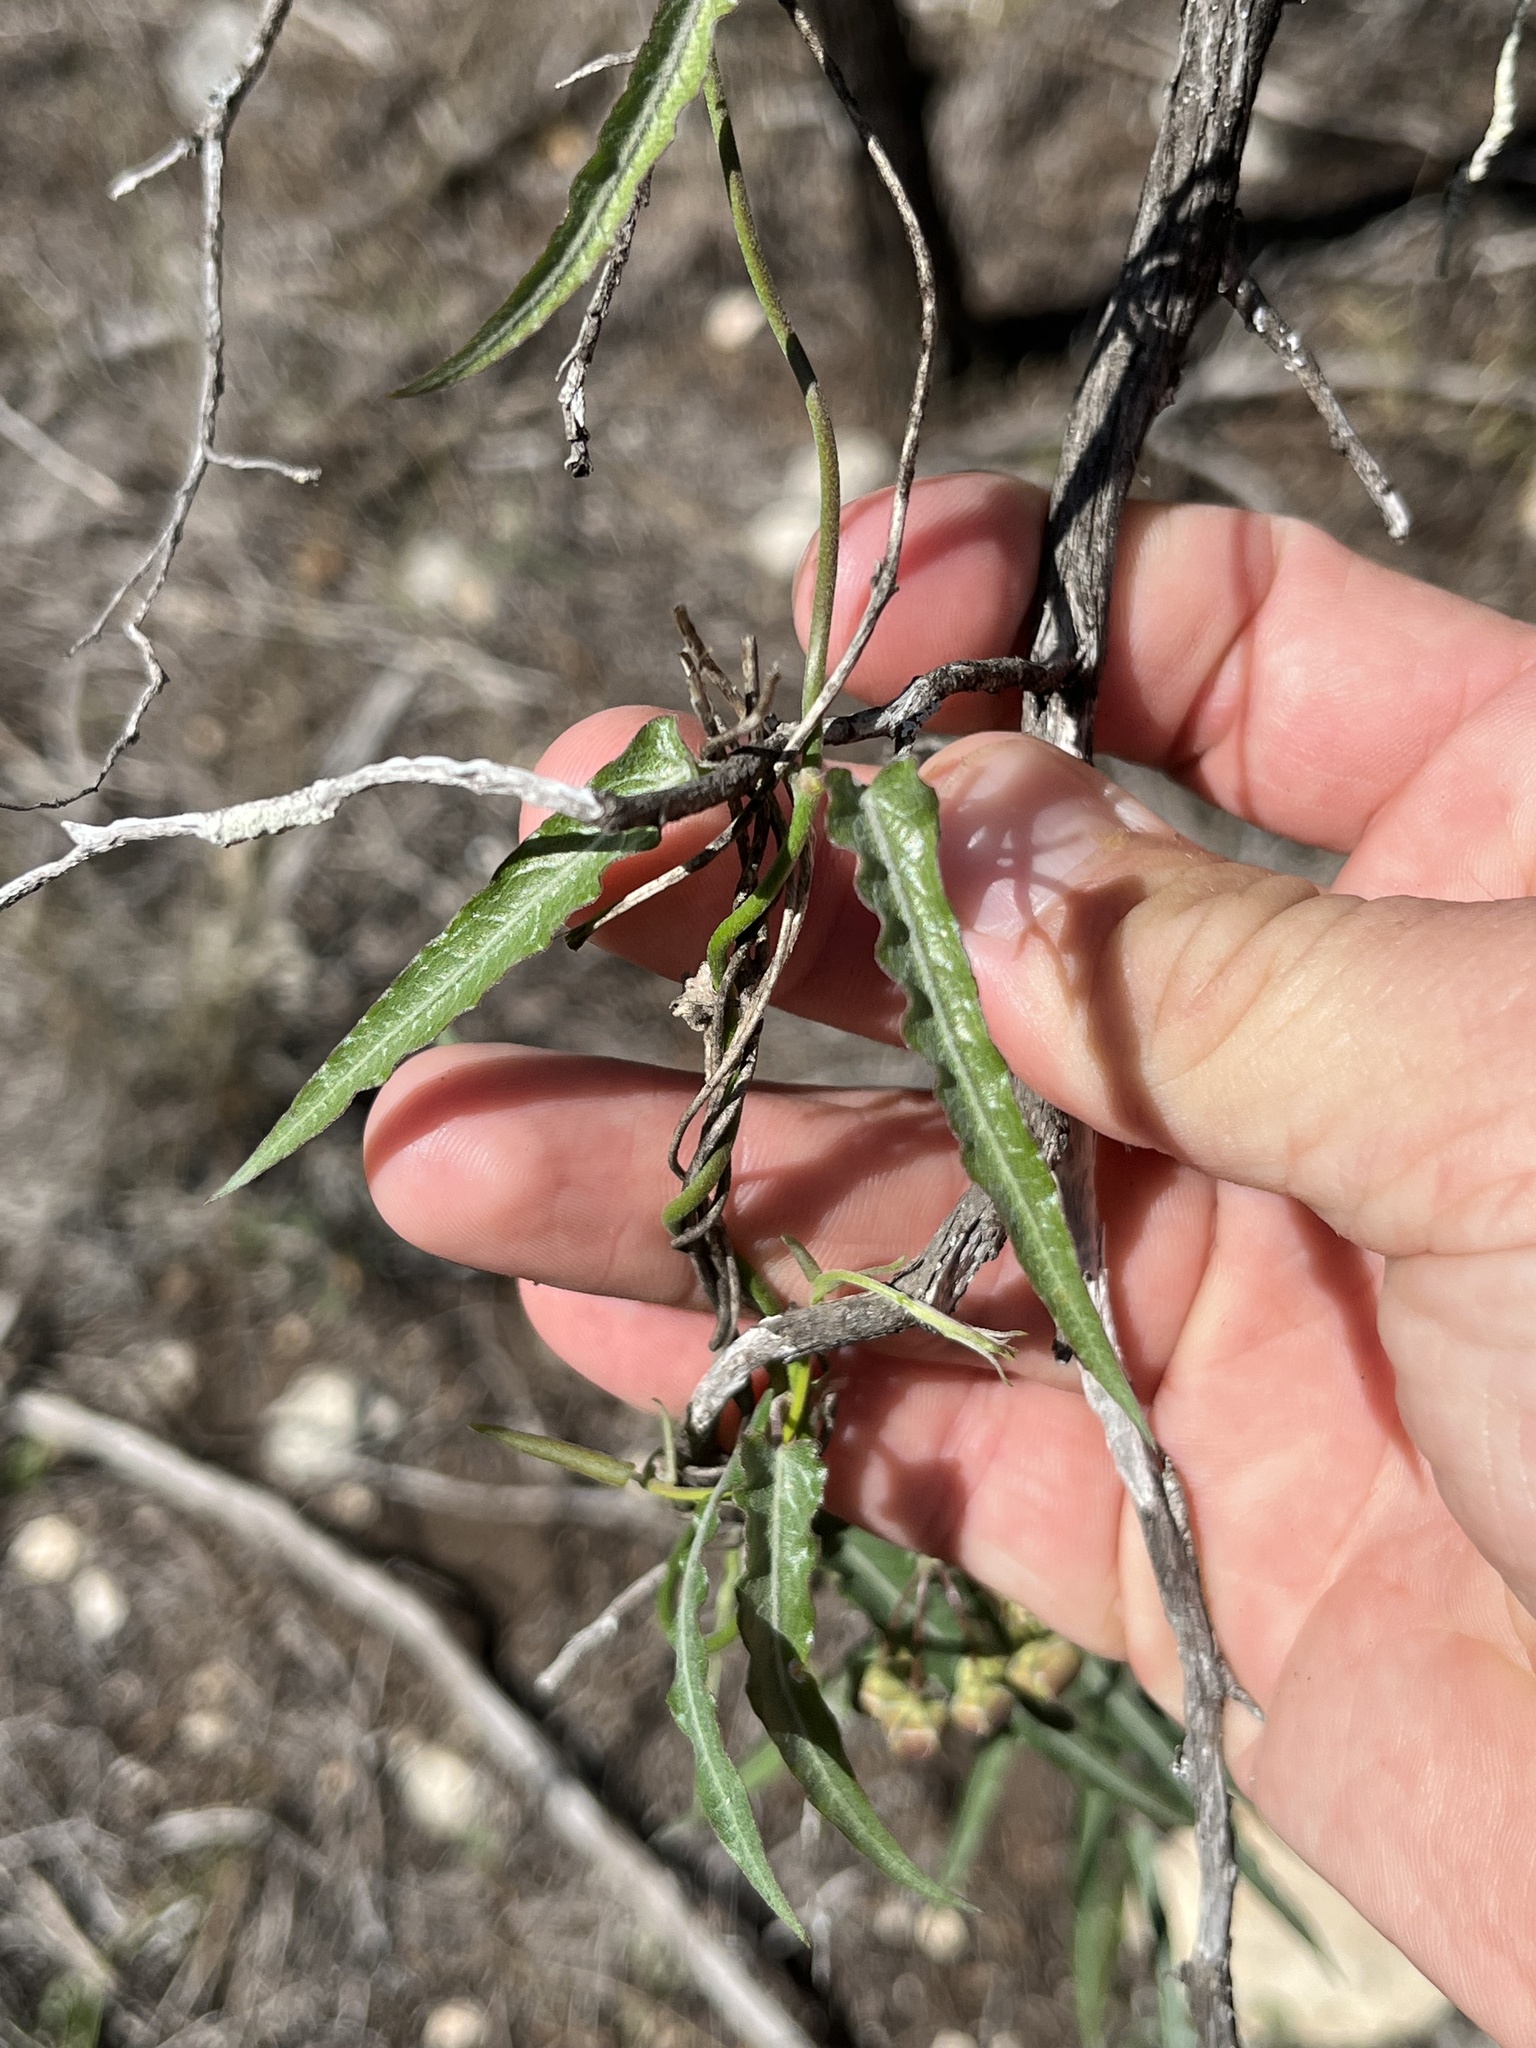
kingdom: Plantae
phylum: Tracheophyta
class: Magnoliopsida
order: Gentianales
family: Apocynaceae
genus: Funastrum
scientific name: Funastrum crispum
